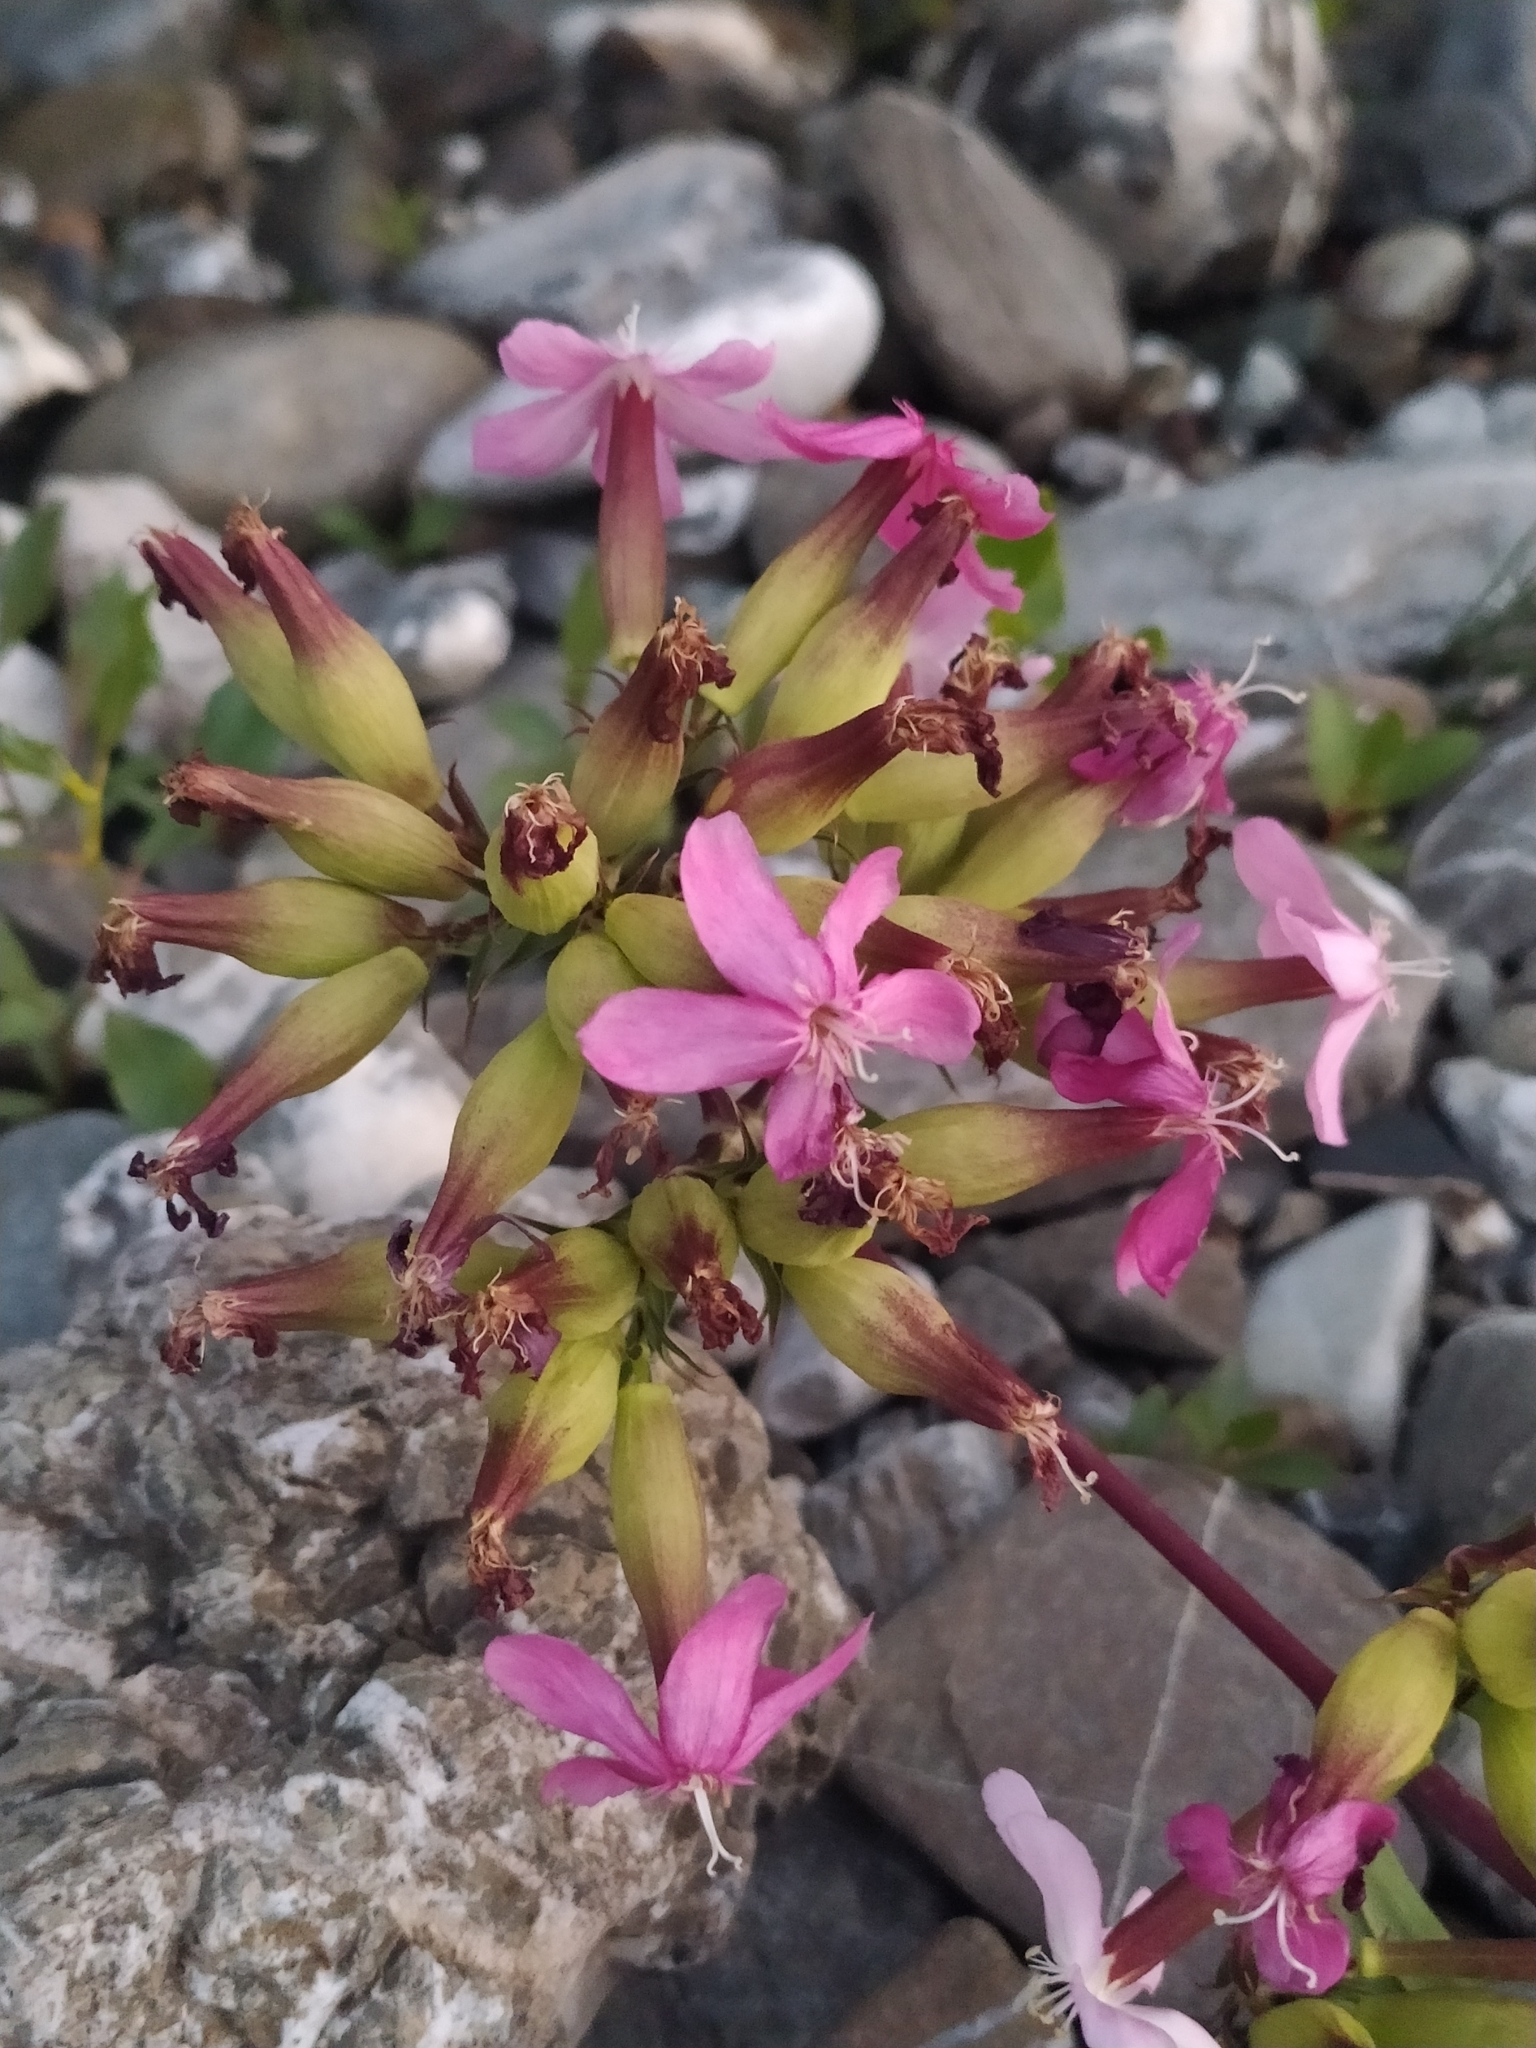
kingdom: Plantae
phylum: Tracheophyta
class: Magnoliopsida
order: Caryophyllales
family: Caryophyllaceae
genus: Saponaria
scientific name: Saponaria officinalis
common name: Soapwort
